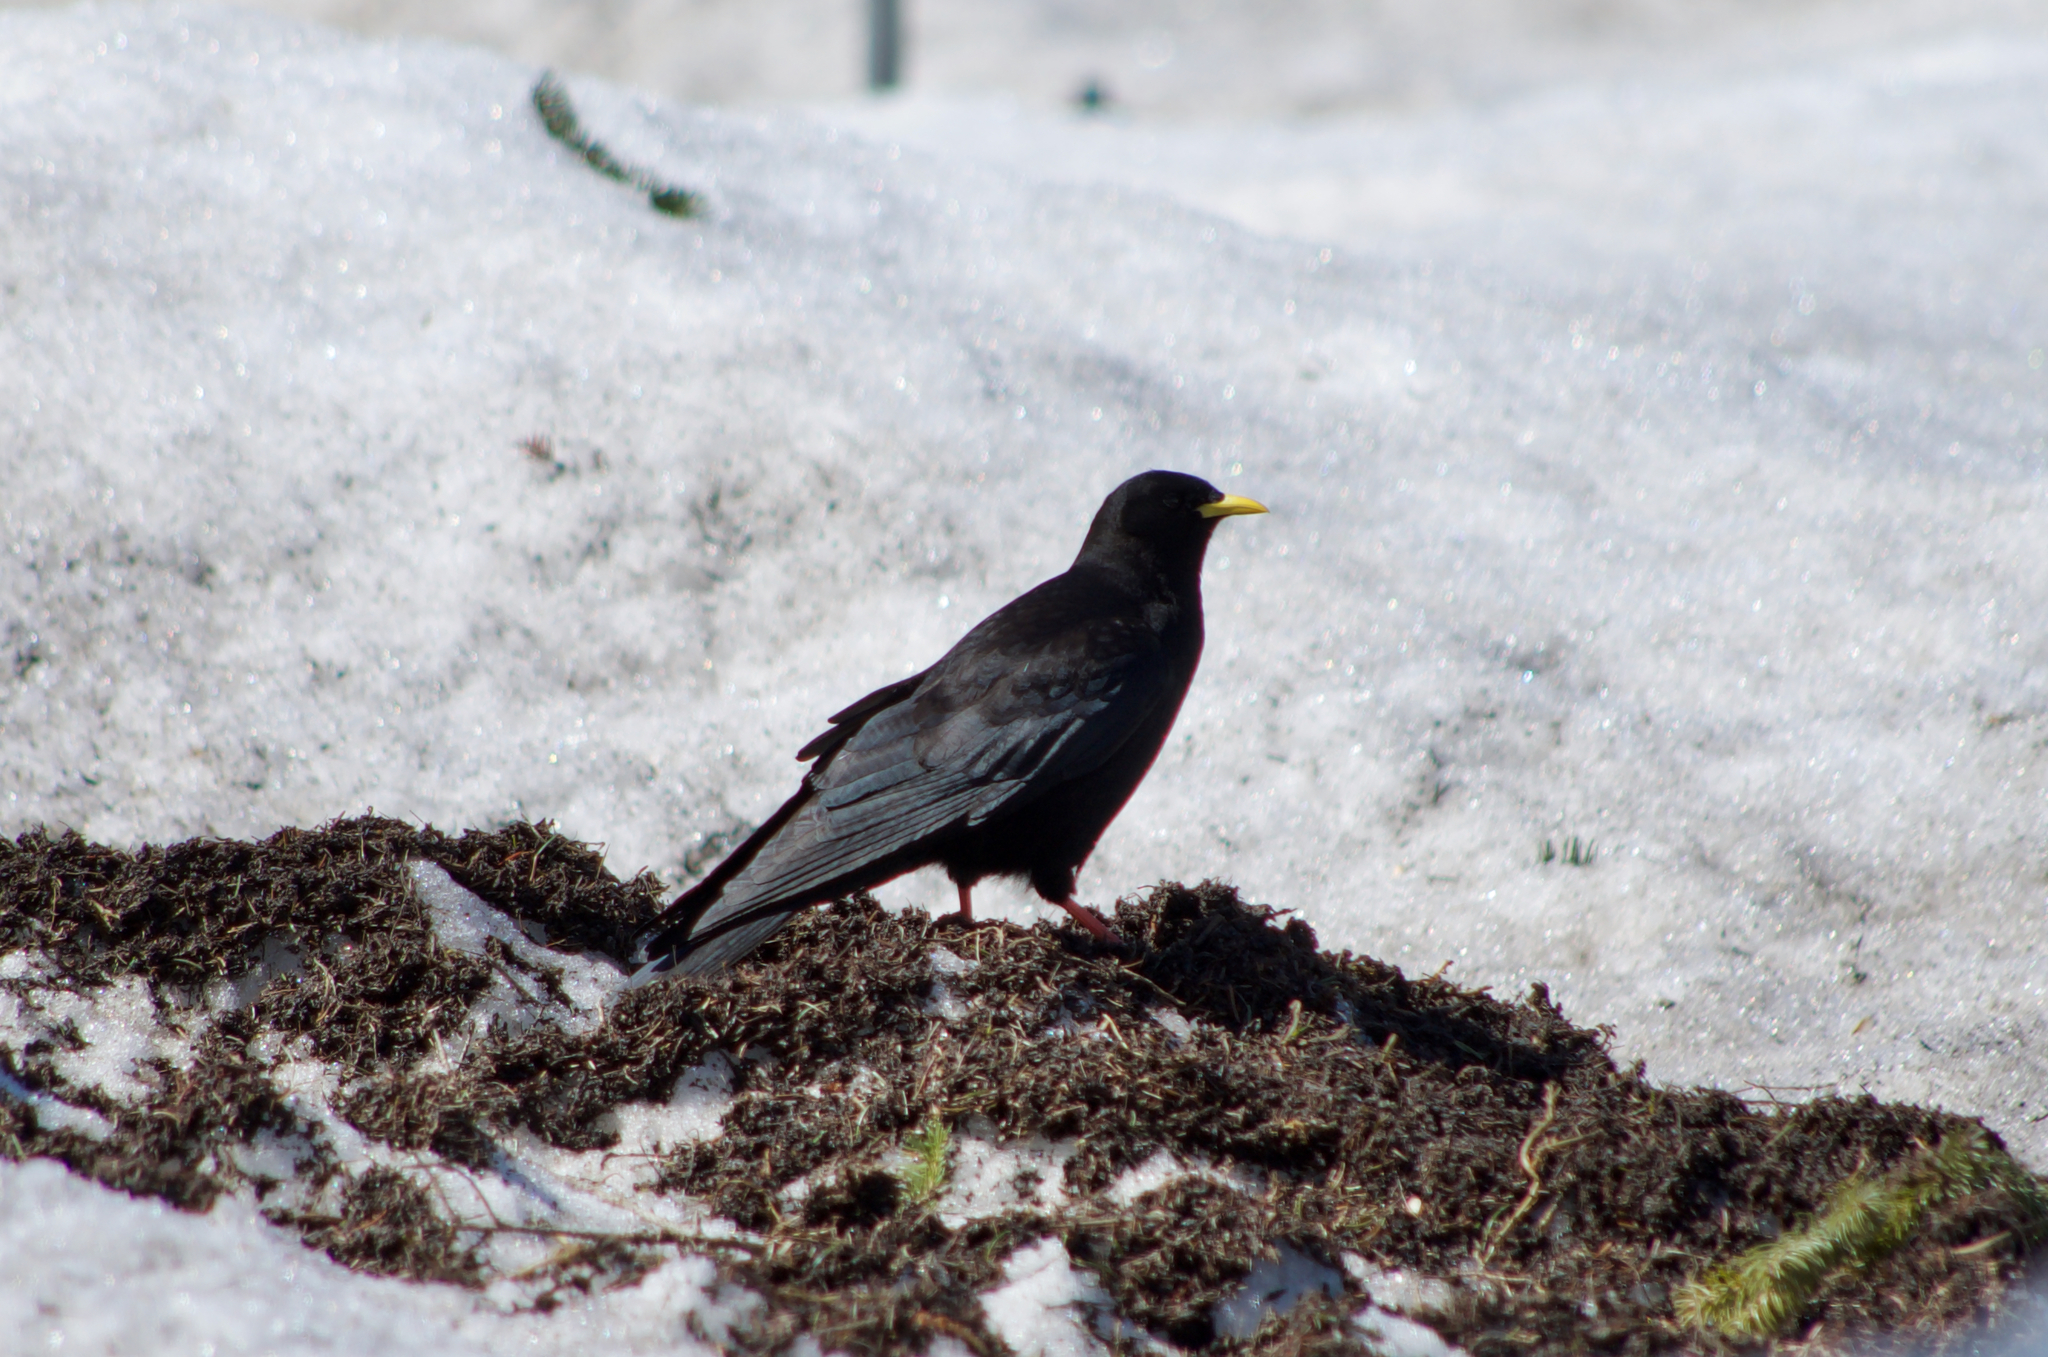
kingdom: Animalia
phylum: Chordata
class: Aves
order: Passeriformes
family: Corvidae
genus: Pyrrhocorax
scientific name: Pyrrhocorax graculus
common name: Alpine chough
